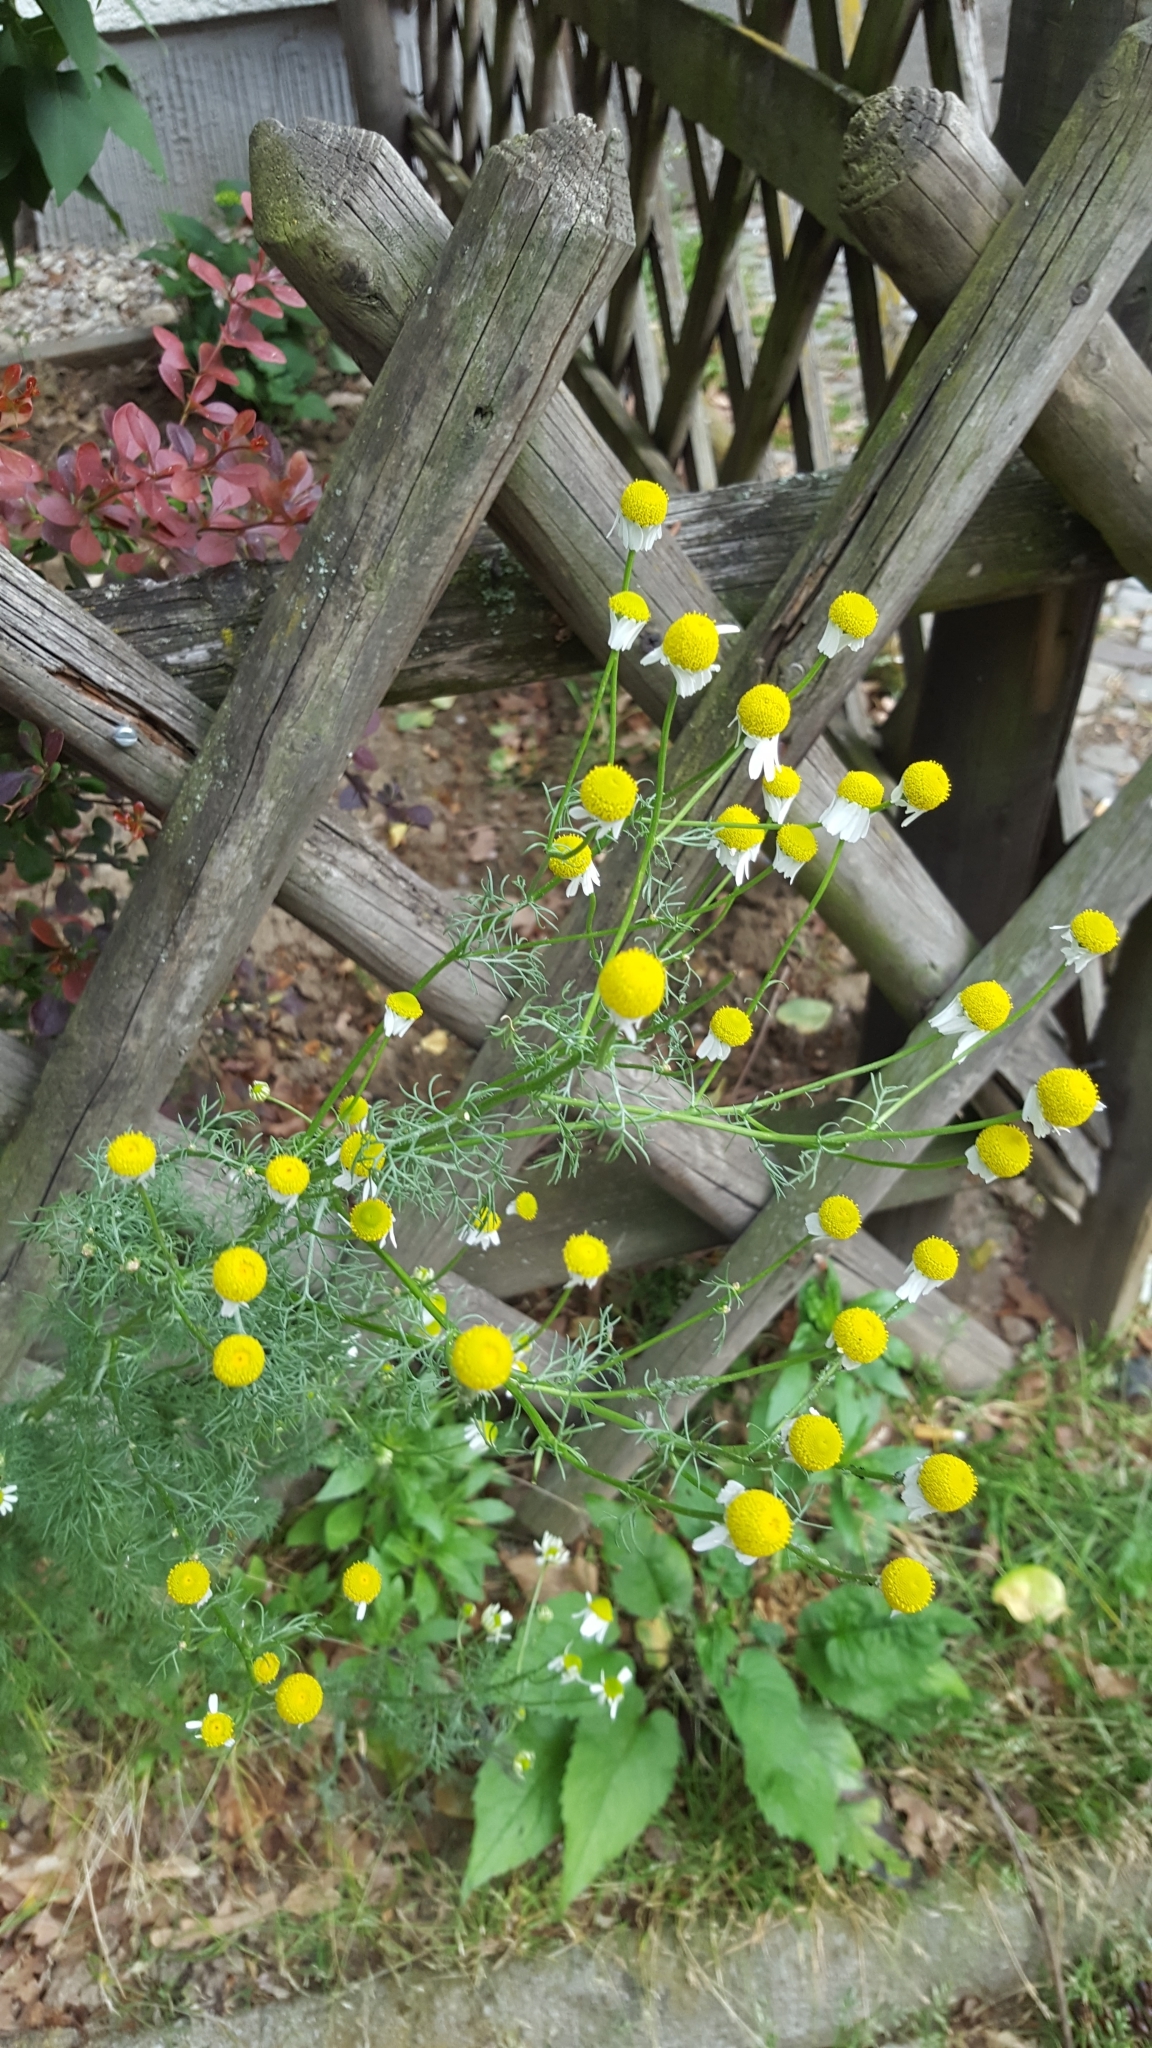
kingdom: Plantae
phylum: Tracheophyta
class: Magnoliopsida
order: Asterales
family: Asteraceae
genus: Matricaria
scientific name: Matricaria chamomilla
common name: Scented mayweed
